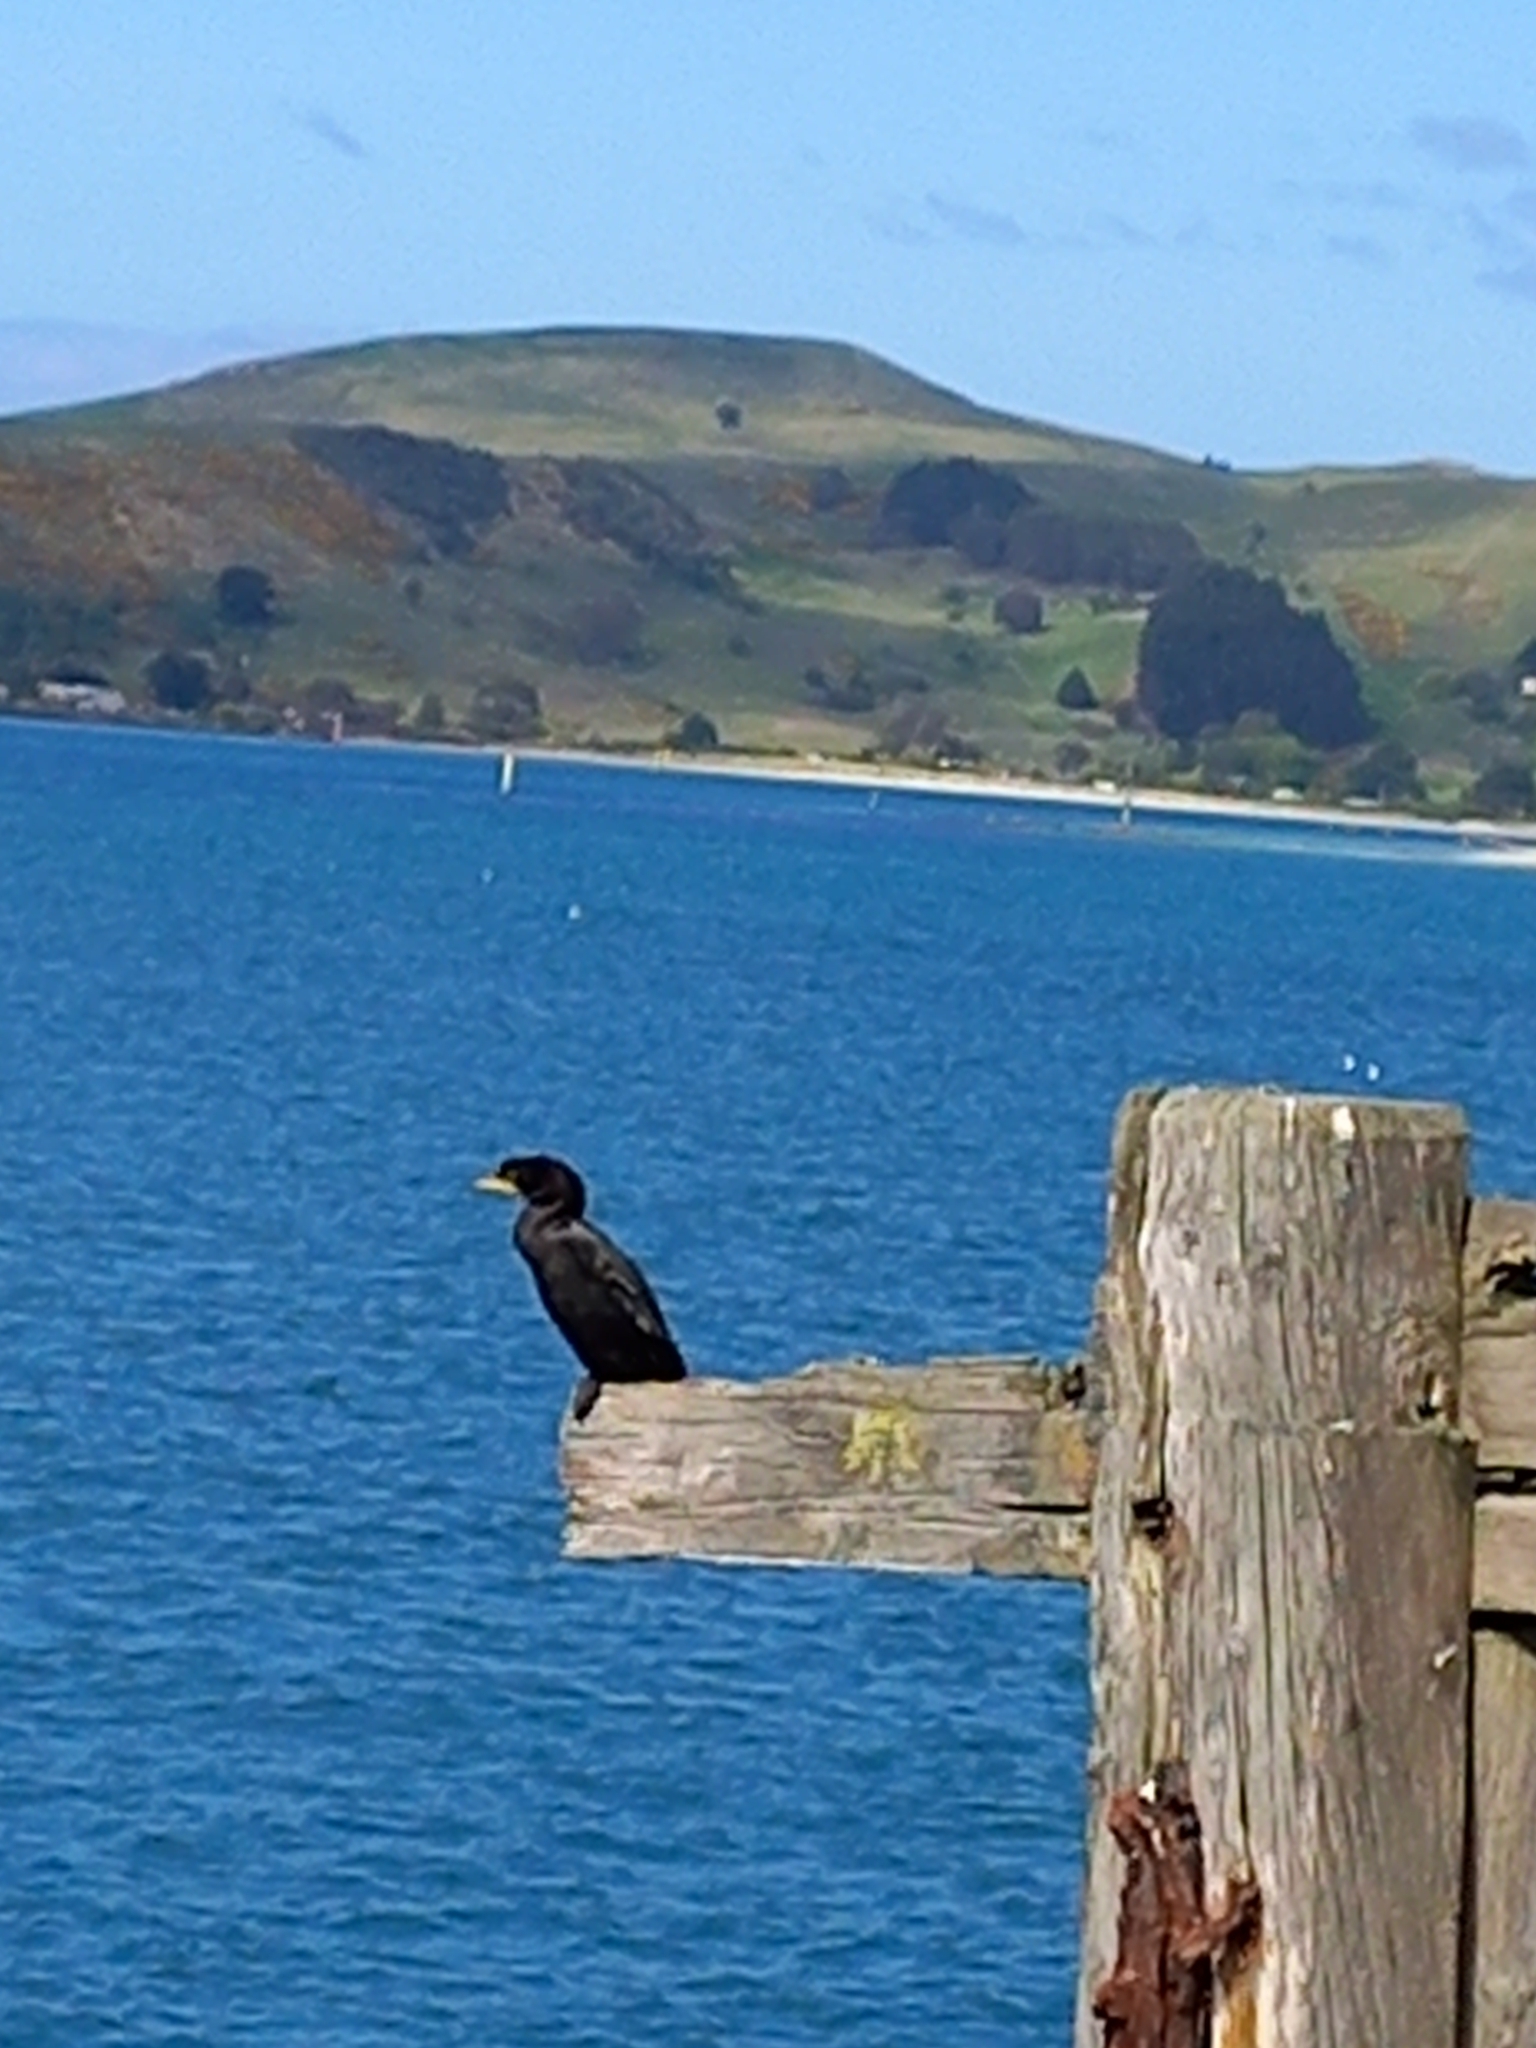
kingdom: Animalia
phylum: Chordata
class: Aves
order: Suliformes
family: Phalacrocoracidae
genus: Microcarbo
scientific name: Microcarbo melanoleucos
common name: Little pied cormorant
